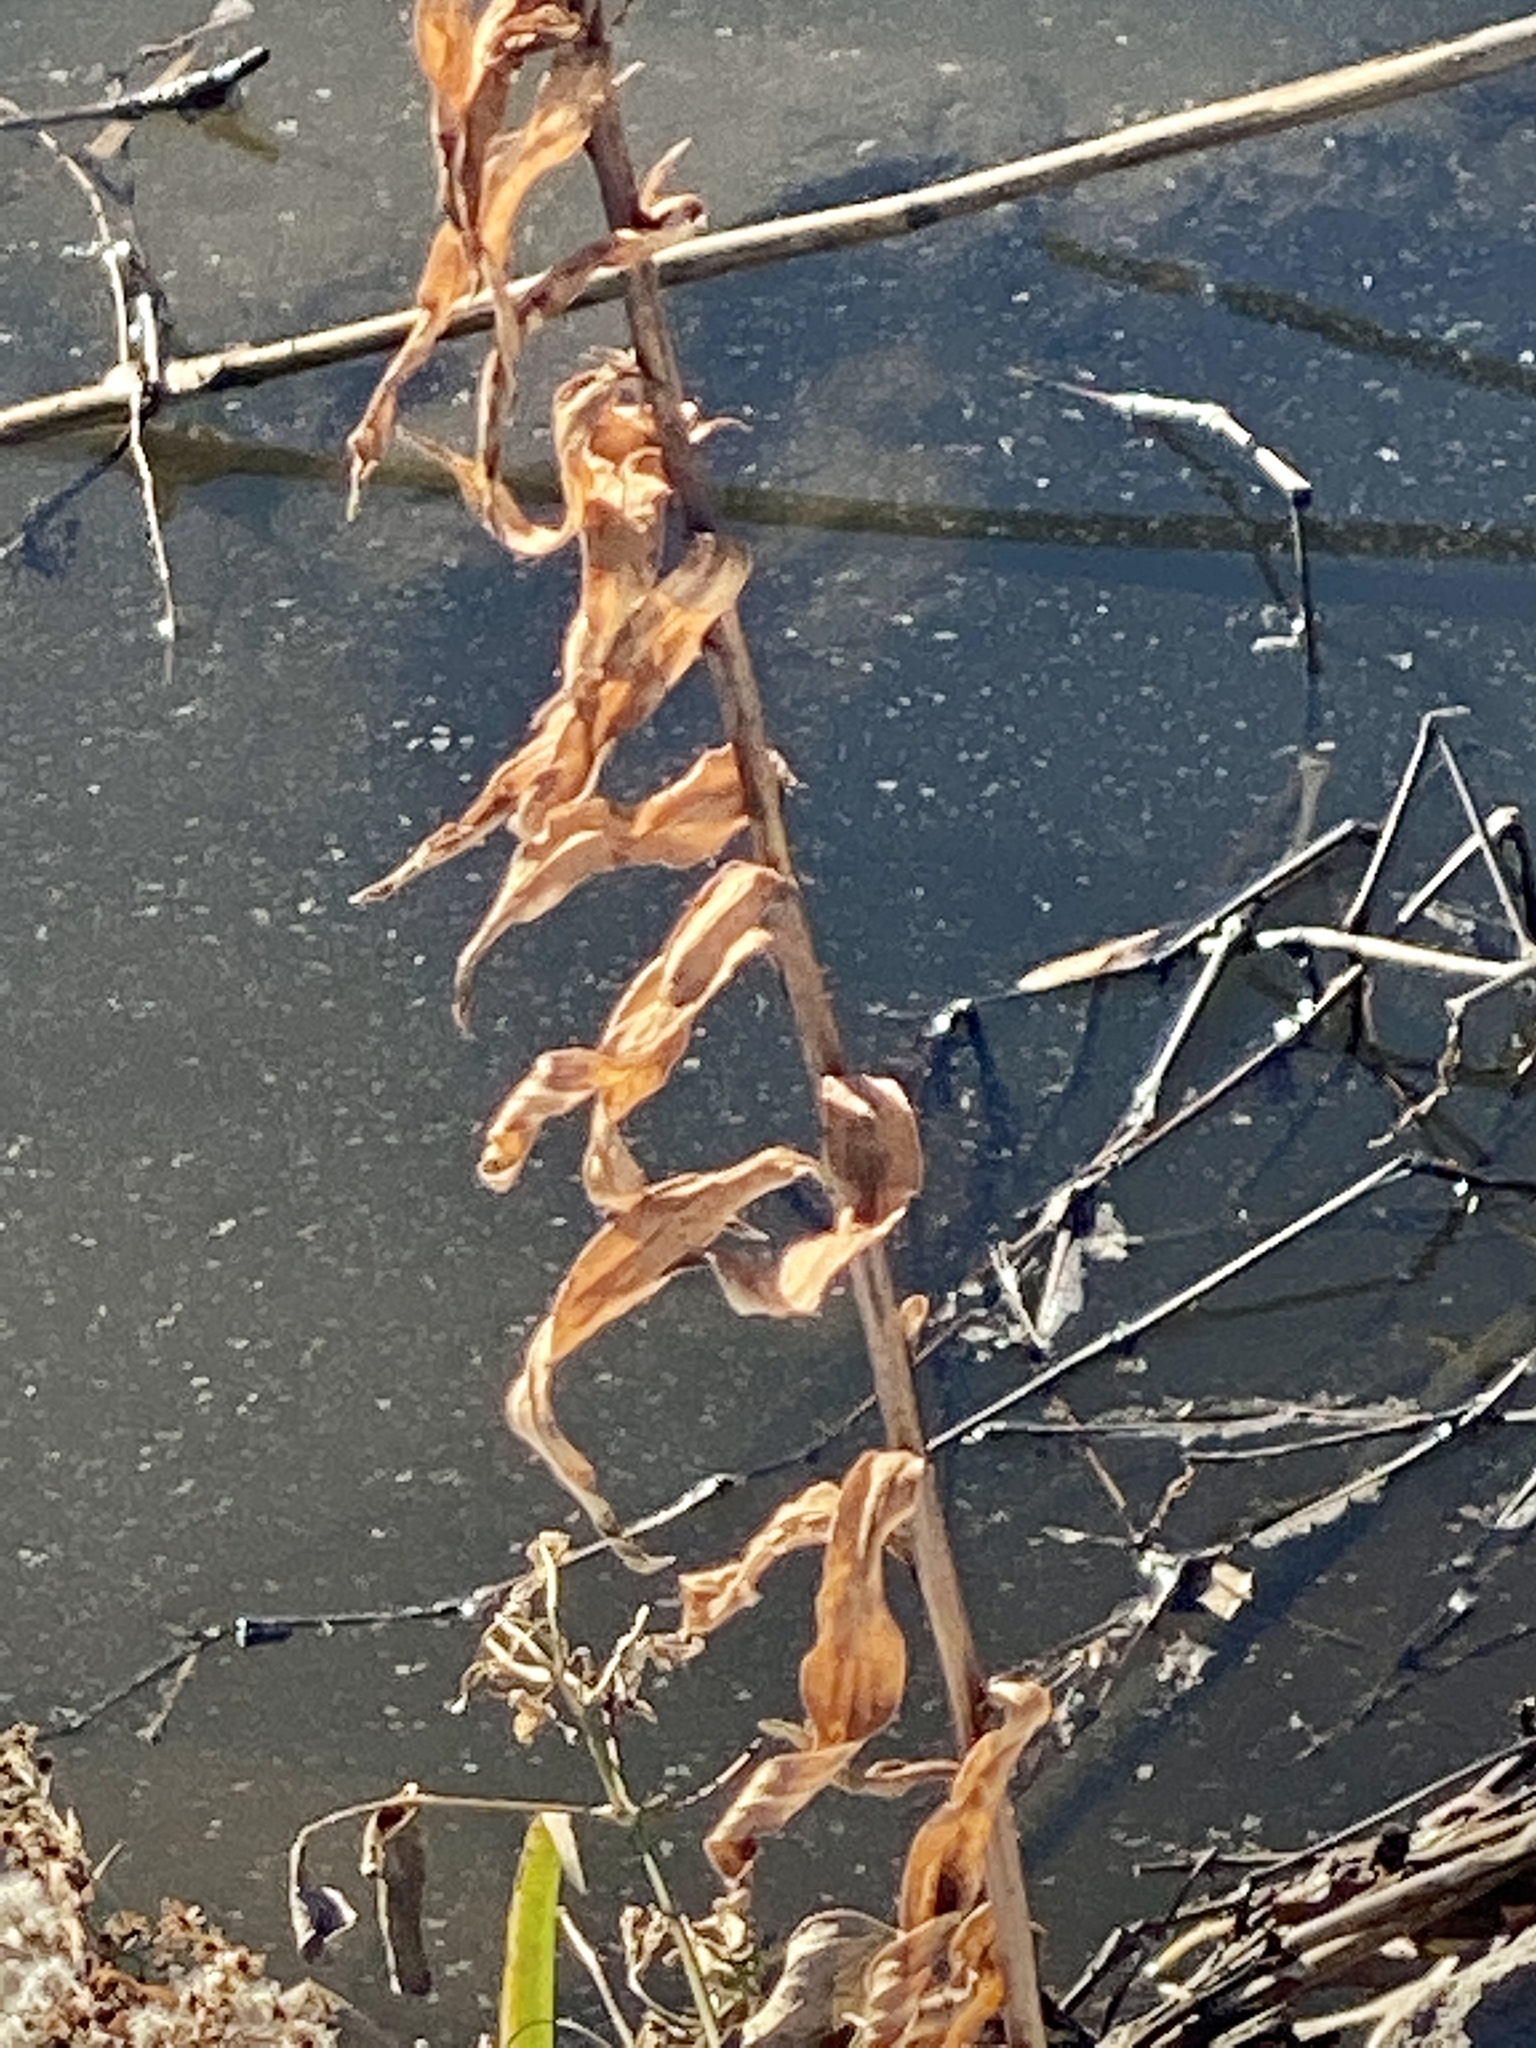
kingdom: Plantae
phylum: Tracheophyta
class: Magnoliopsida
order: Asterales
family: Asteraceae
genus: Solidago
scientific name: Solidago sempervirens
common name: Salt-marsh goldenrod
